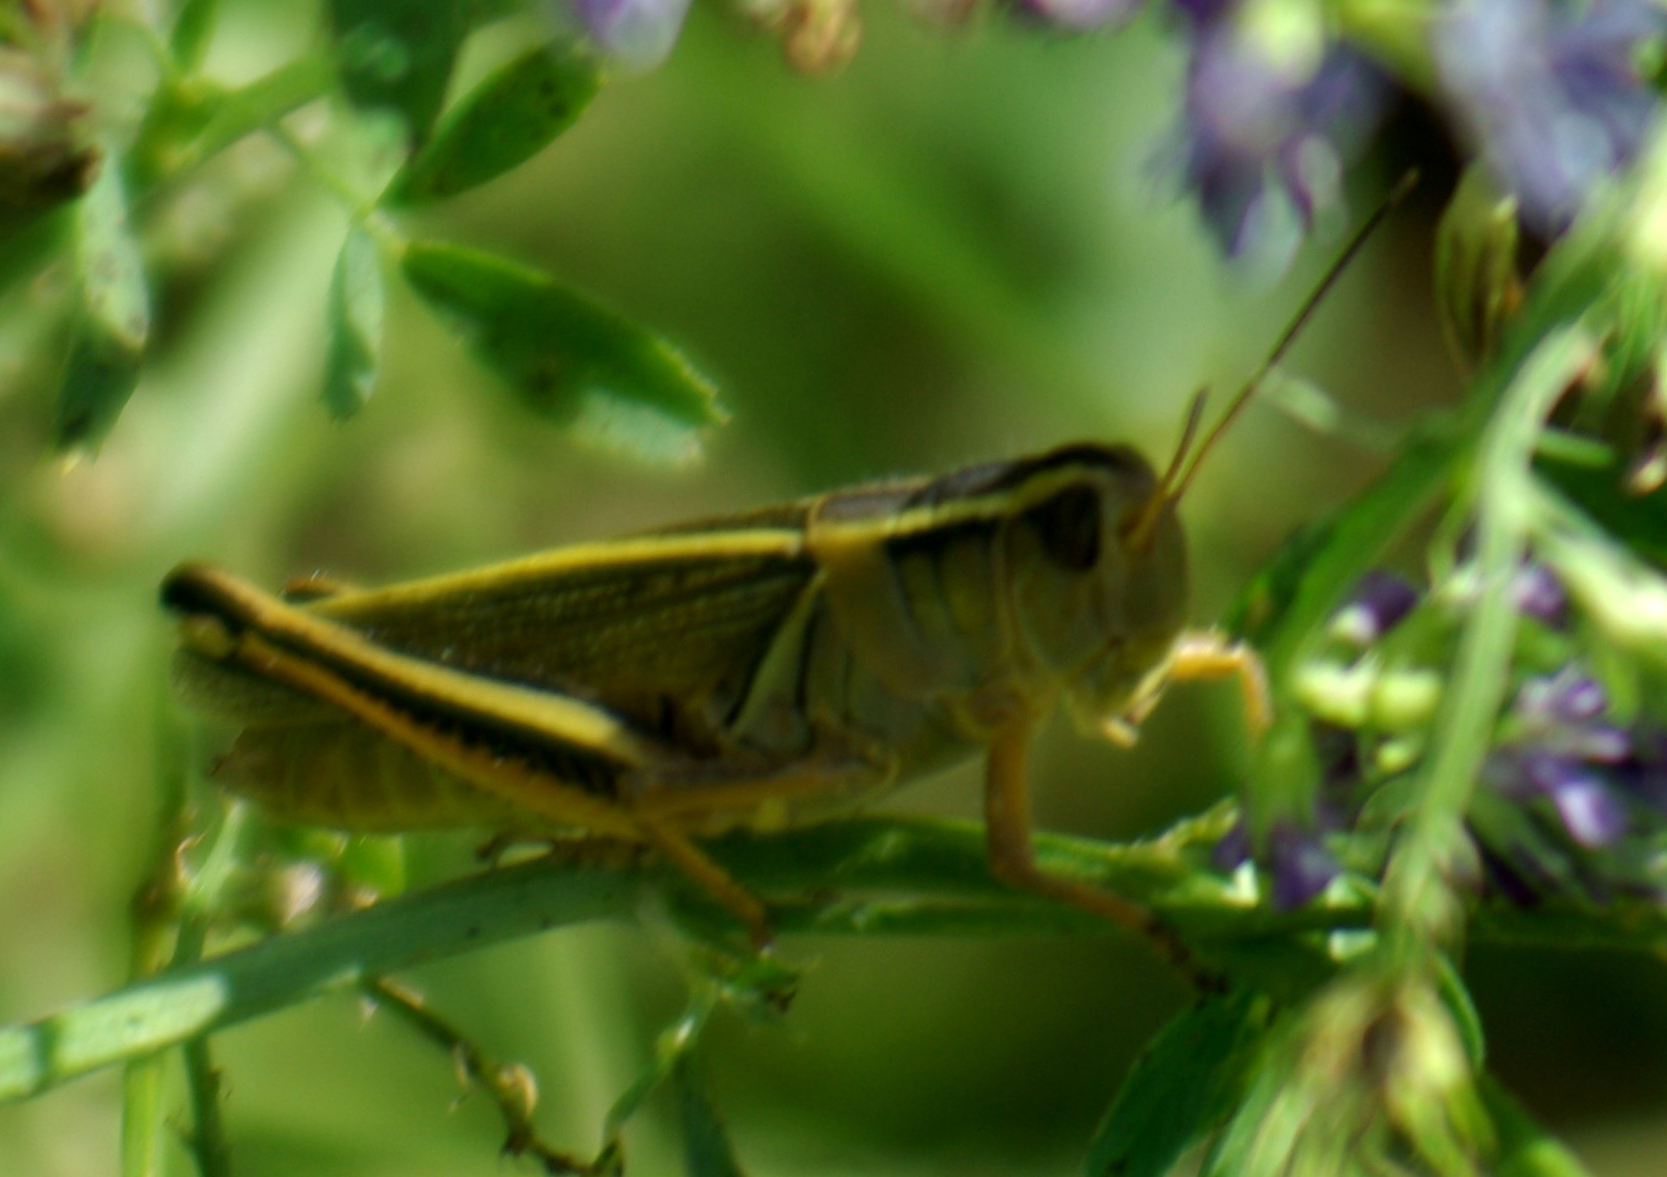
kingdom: Animalia
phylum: Arthropoda
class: Insecta
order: Orthoptera
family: Acrididae
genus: Melanoplus
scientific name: Melanoplus bivittatus
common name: Two-striped grasshopper
